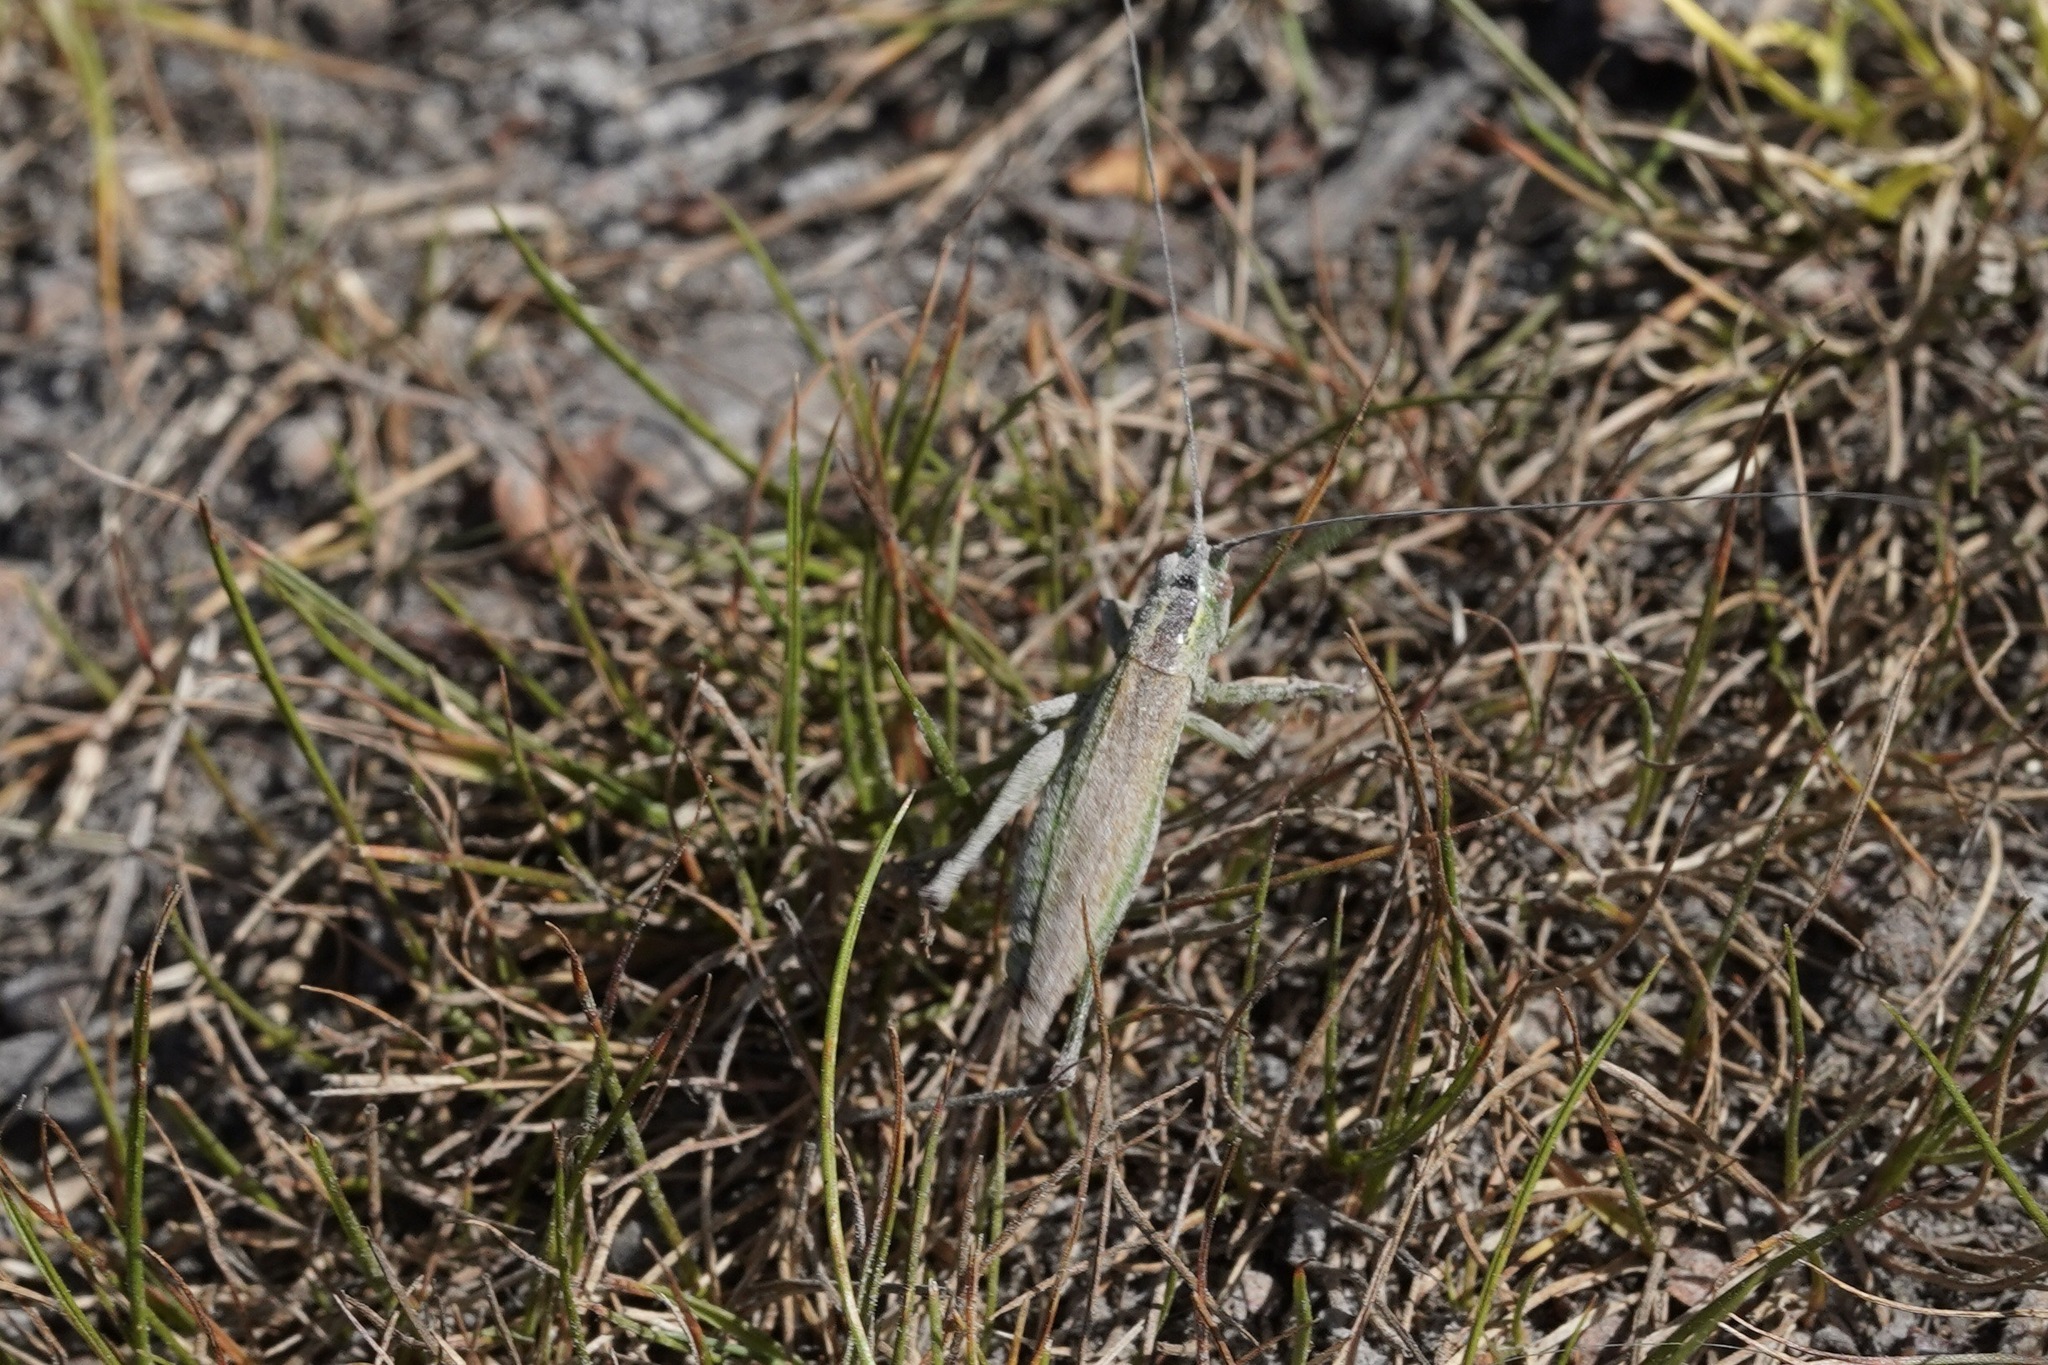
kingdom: Animalia
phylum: Arthropoda
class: Insecta
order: Orthoptera
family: Tettigoniidae
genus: Conocephalus
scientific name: Conocephalus fuscus
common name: Long-winged conehead
